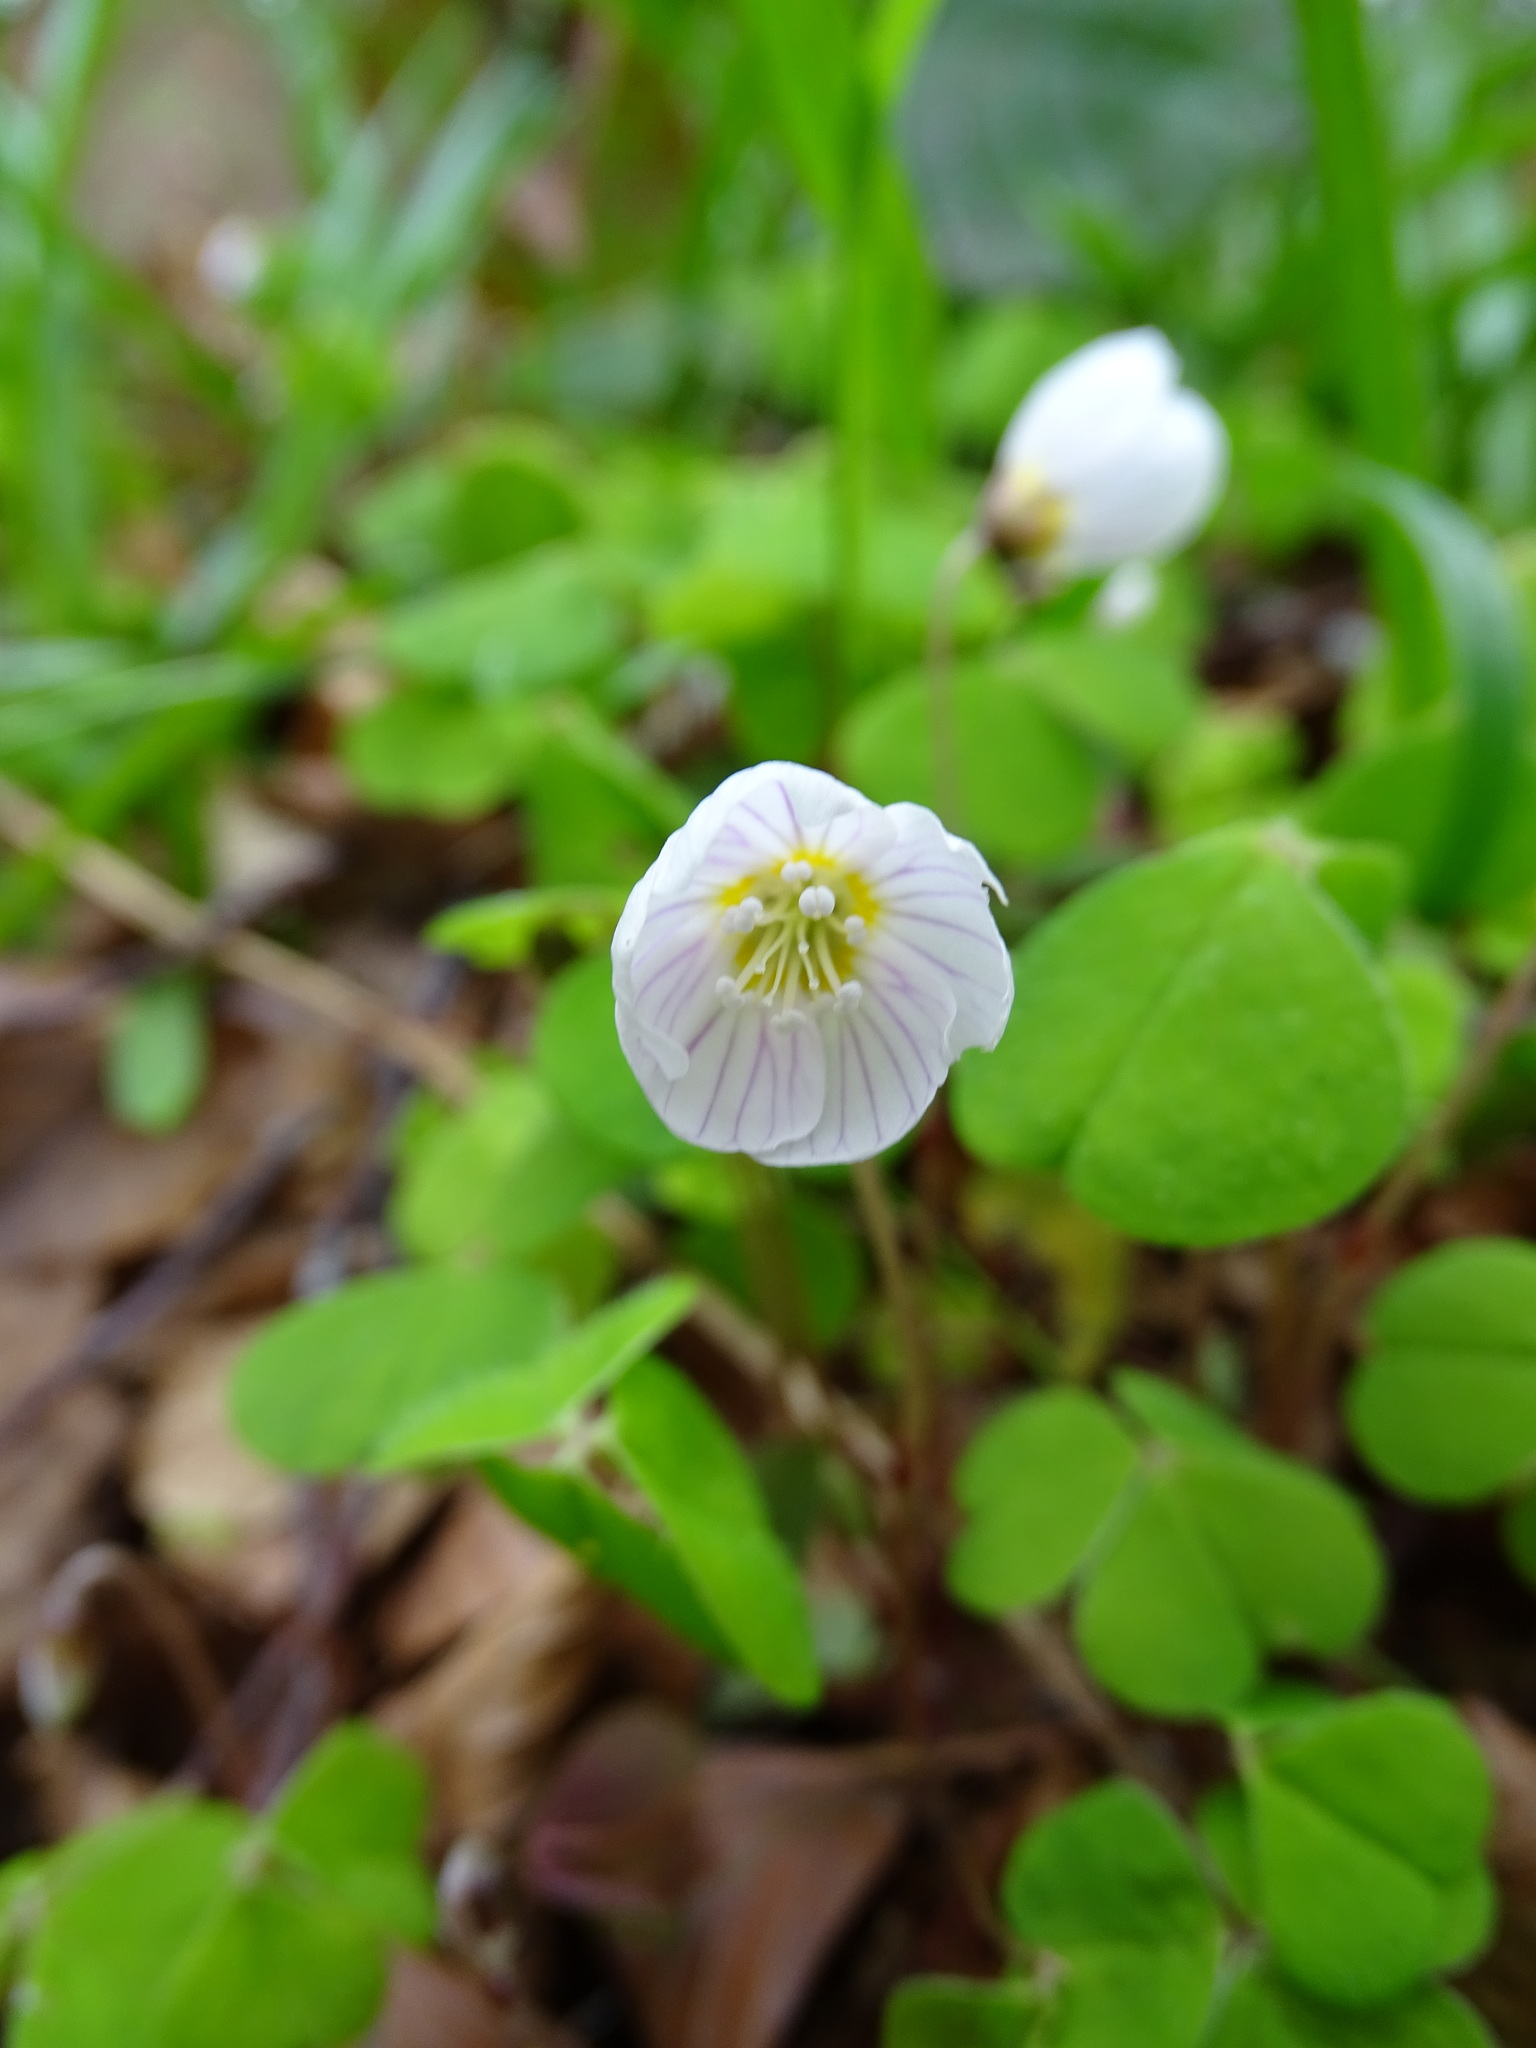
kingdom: Plantae
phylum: Tracheophyta
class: Magnoliopsida
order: Oxalidales
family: Oxalidaceae
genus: Oxalis
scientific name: Oxalis acetosella
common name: Wood-sorrel
